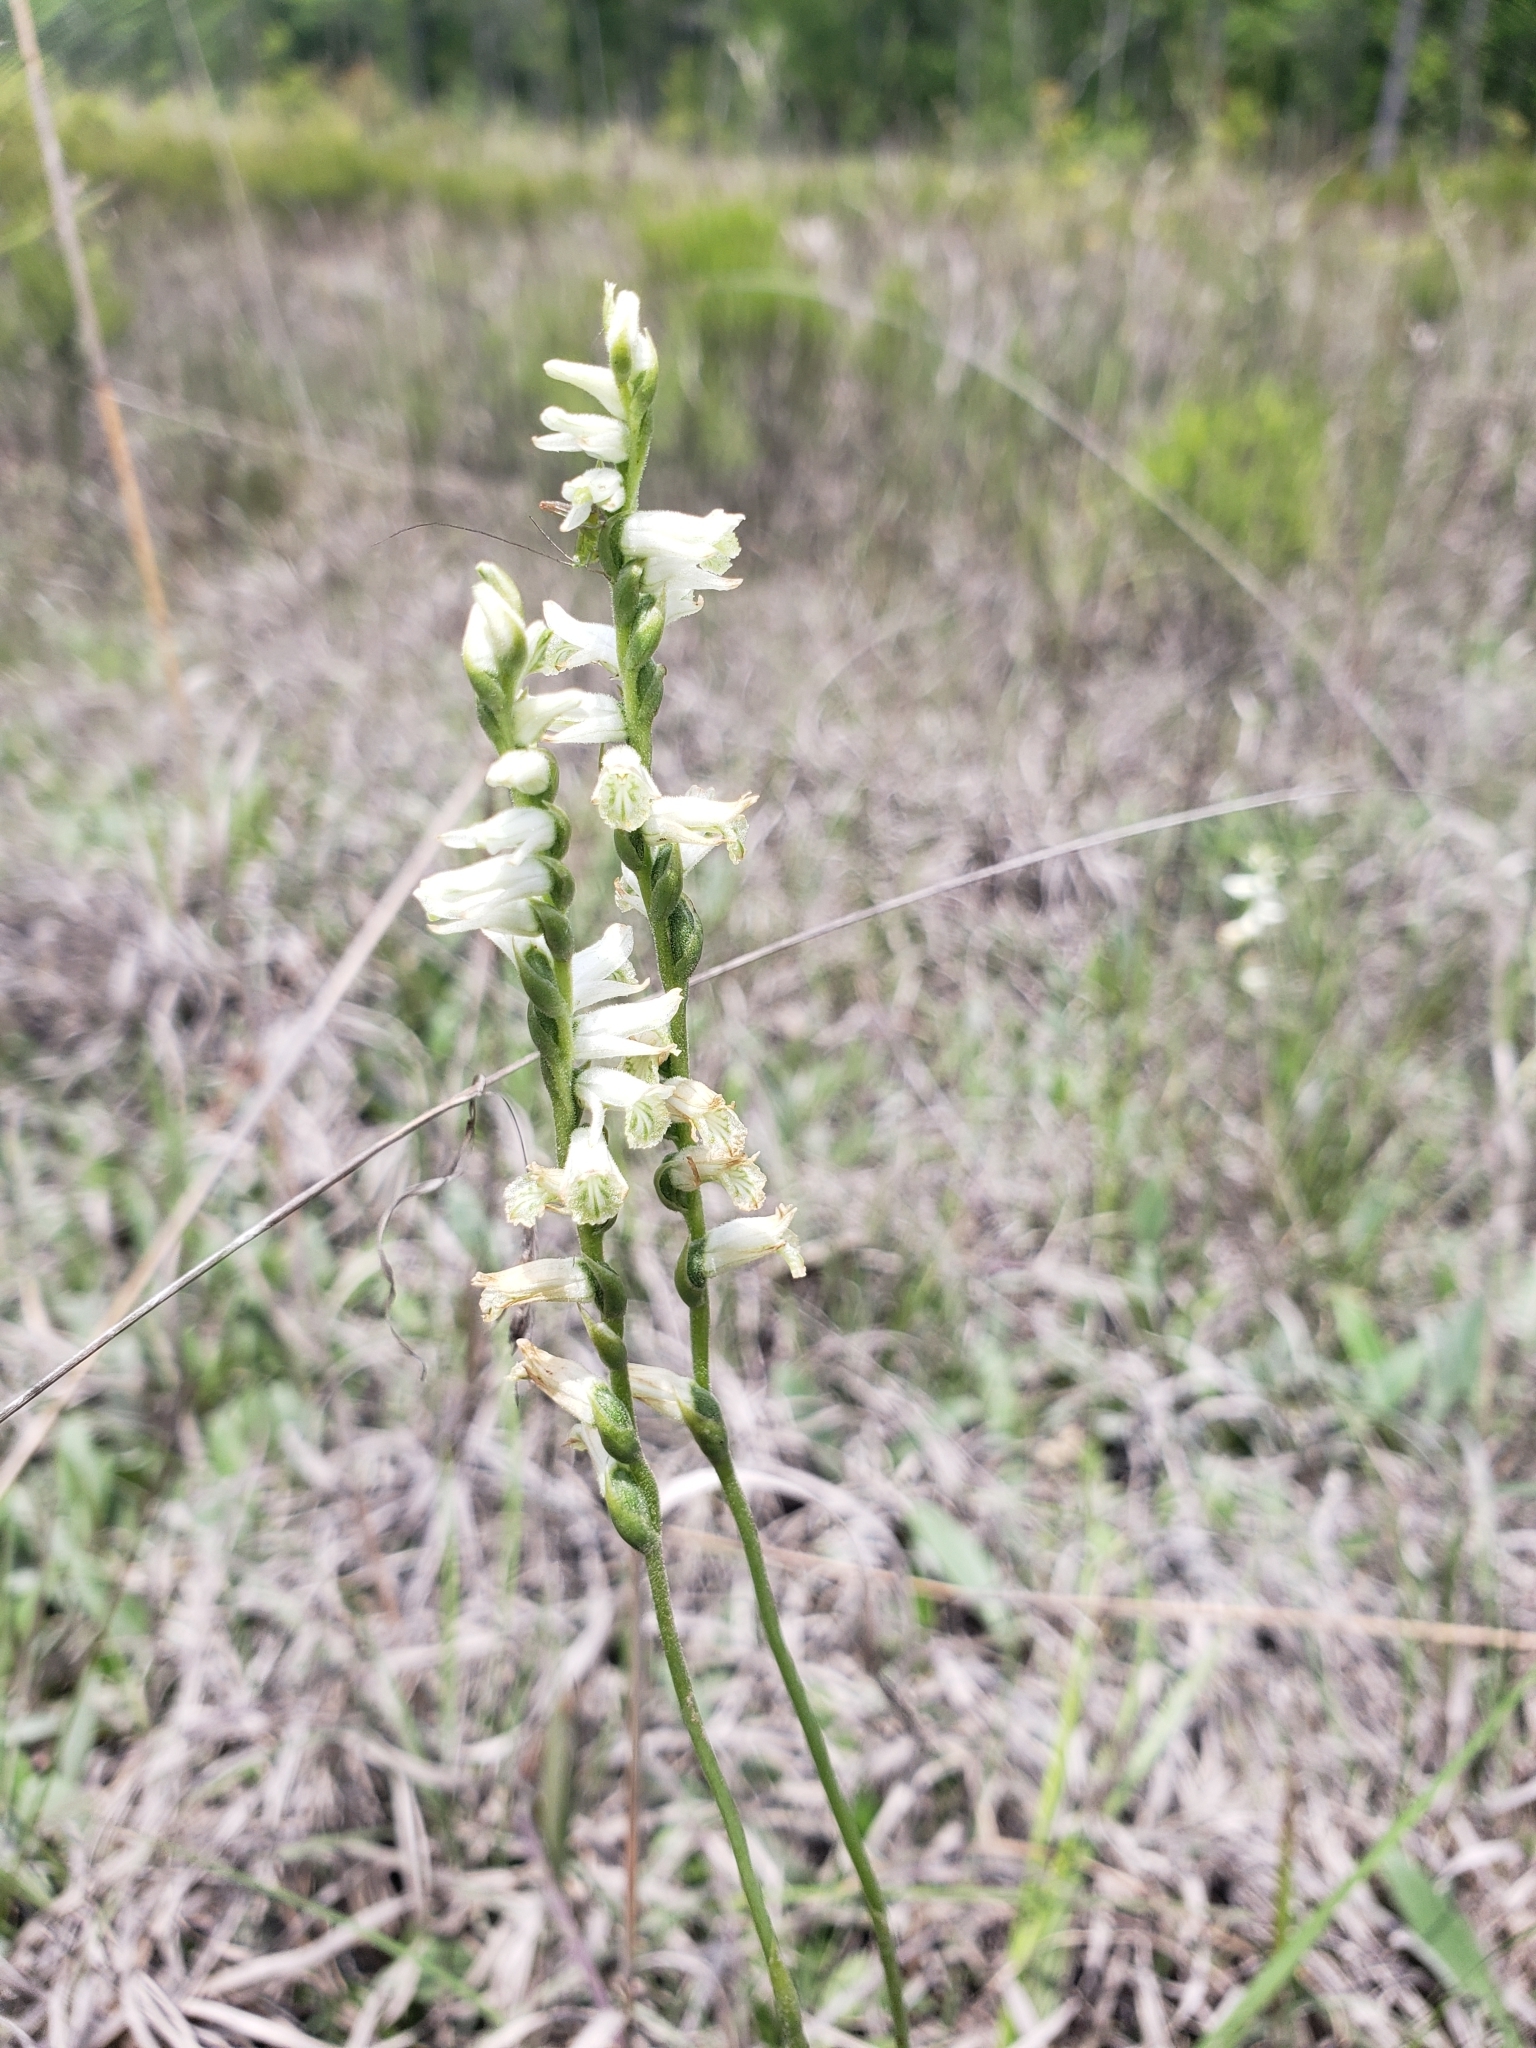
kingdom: Plantae
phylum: Tracheophyta
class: Liliopsida
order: Asparagales
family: Orchidaceae
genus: Spiranthes
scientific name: Spiranthes praecox
